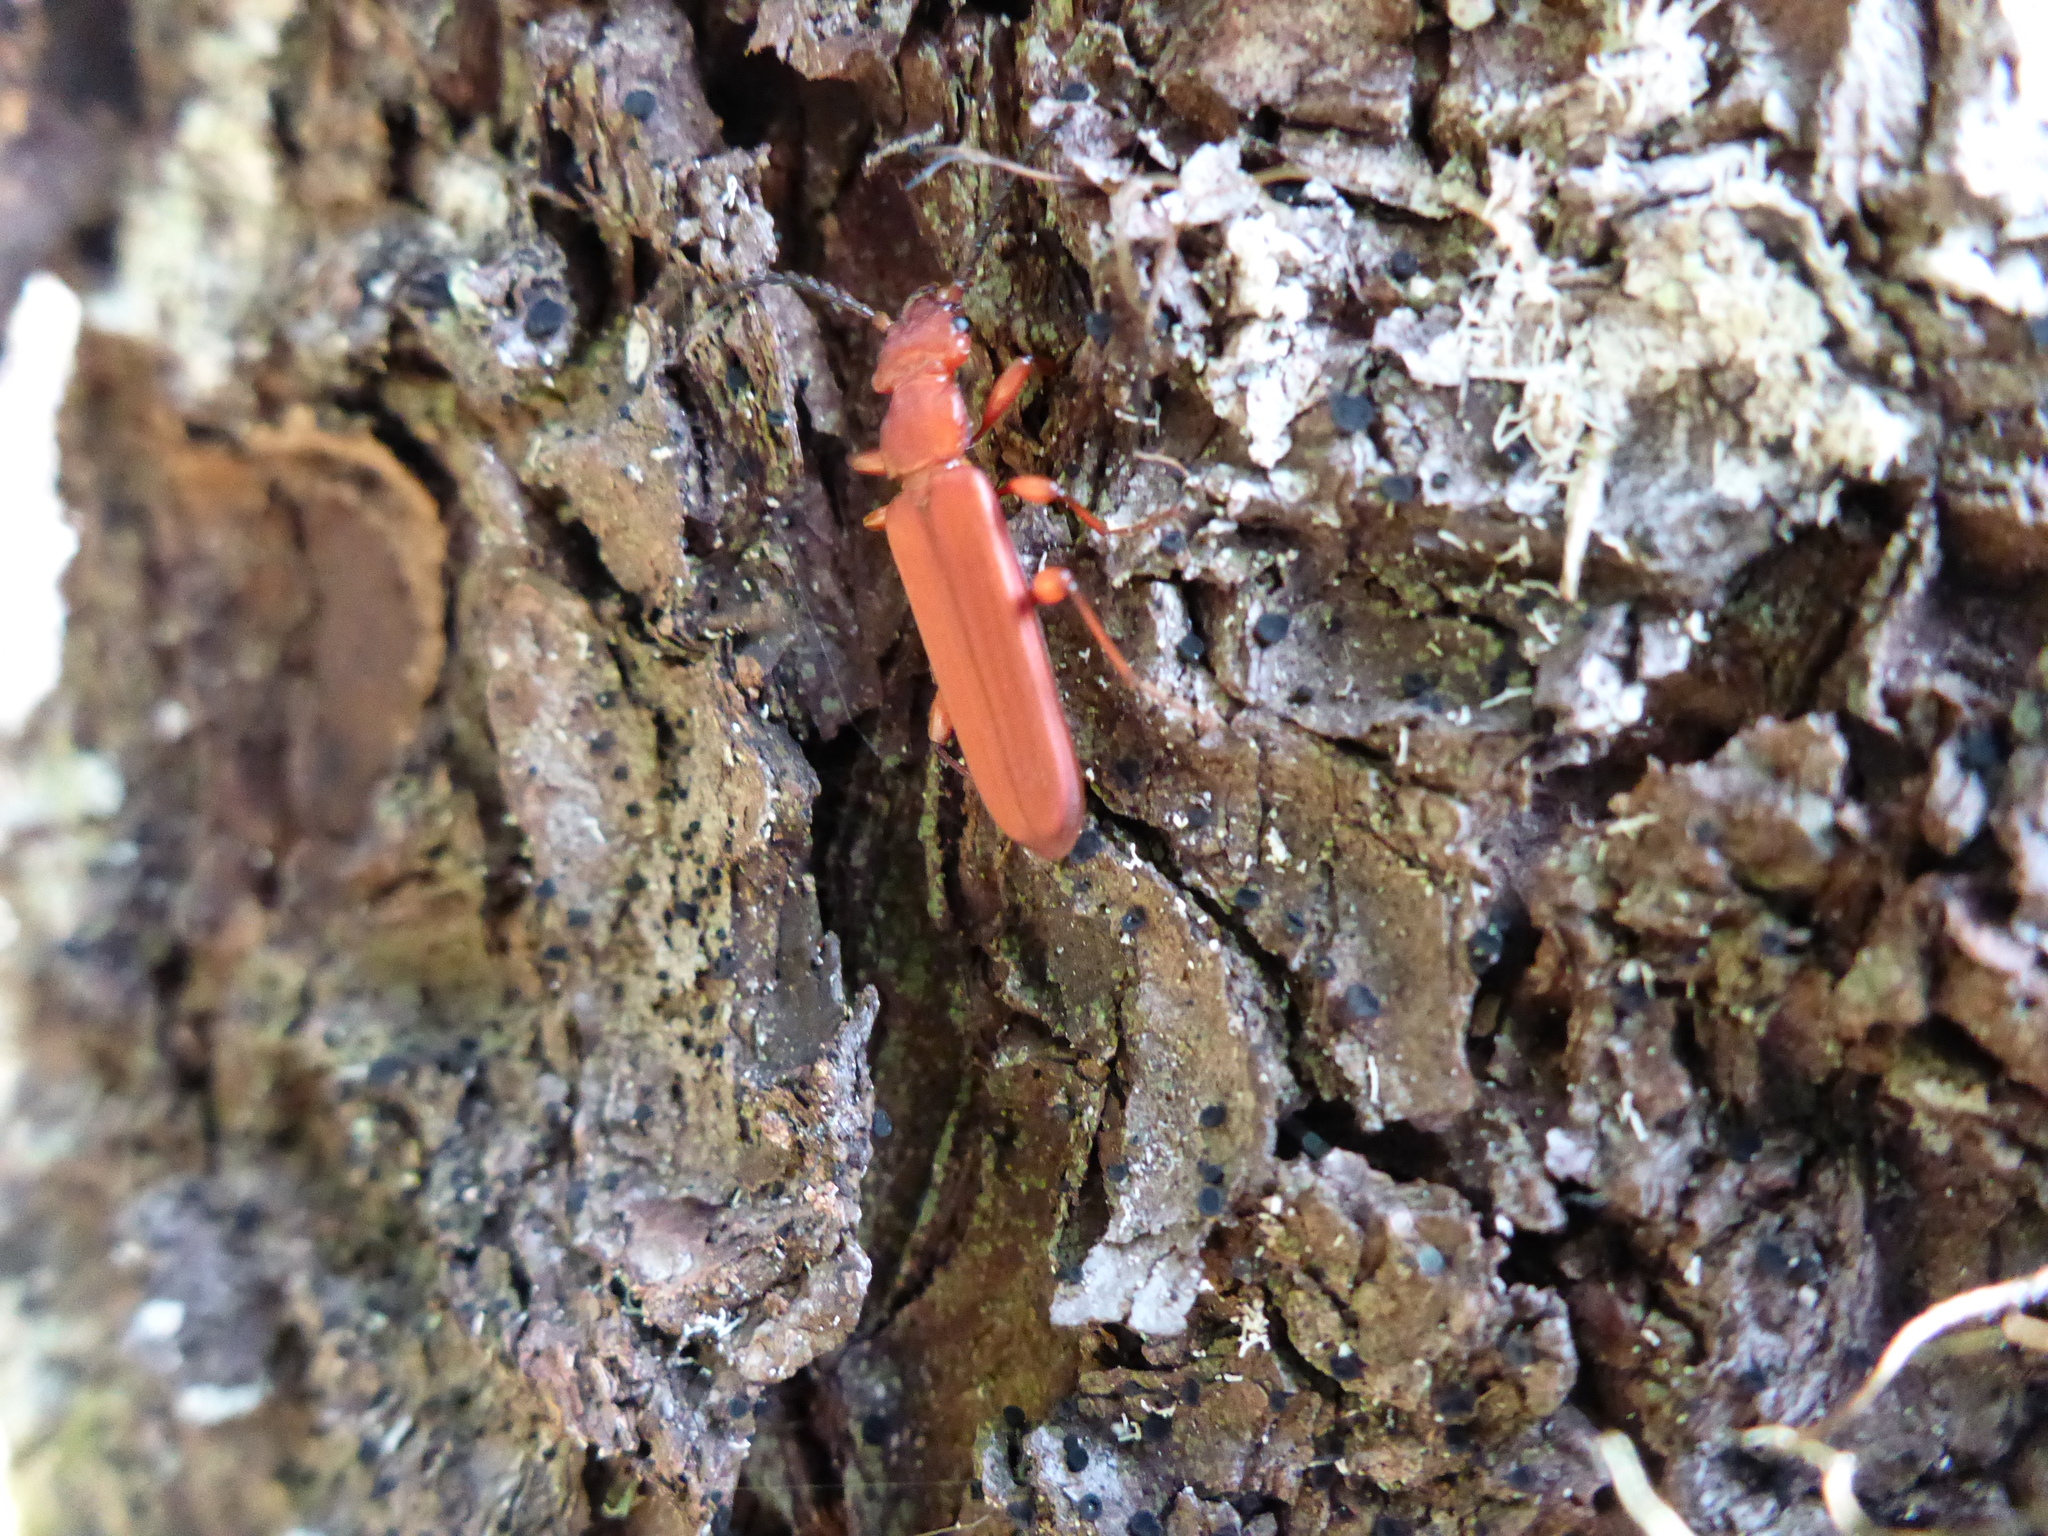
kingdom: Animalia
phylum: Arthropoda
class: Insecta
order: Coleoptera
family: Cucujidae
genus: Cucujus
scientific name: Cucujus clavipes
